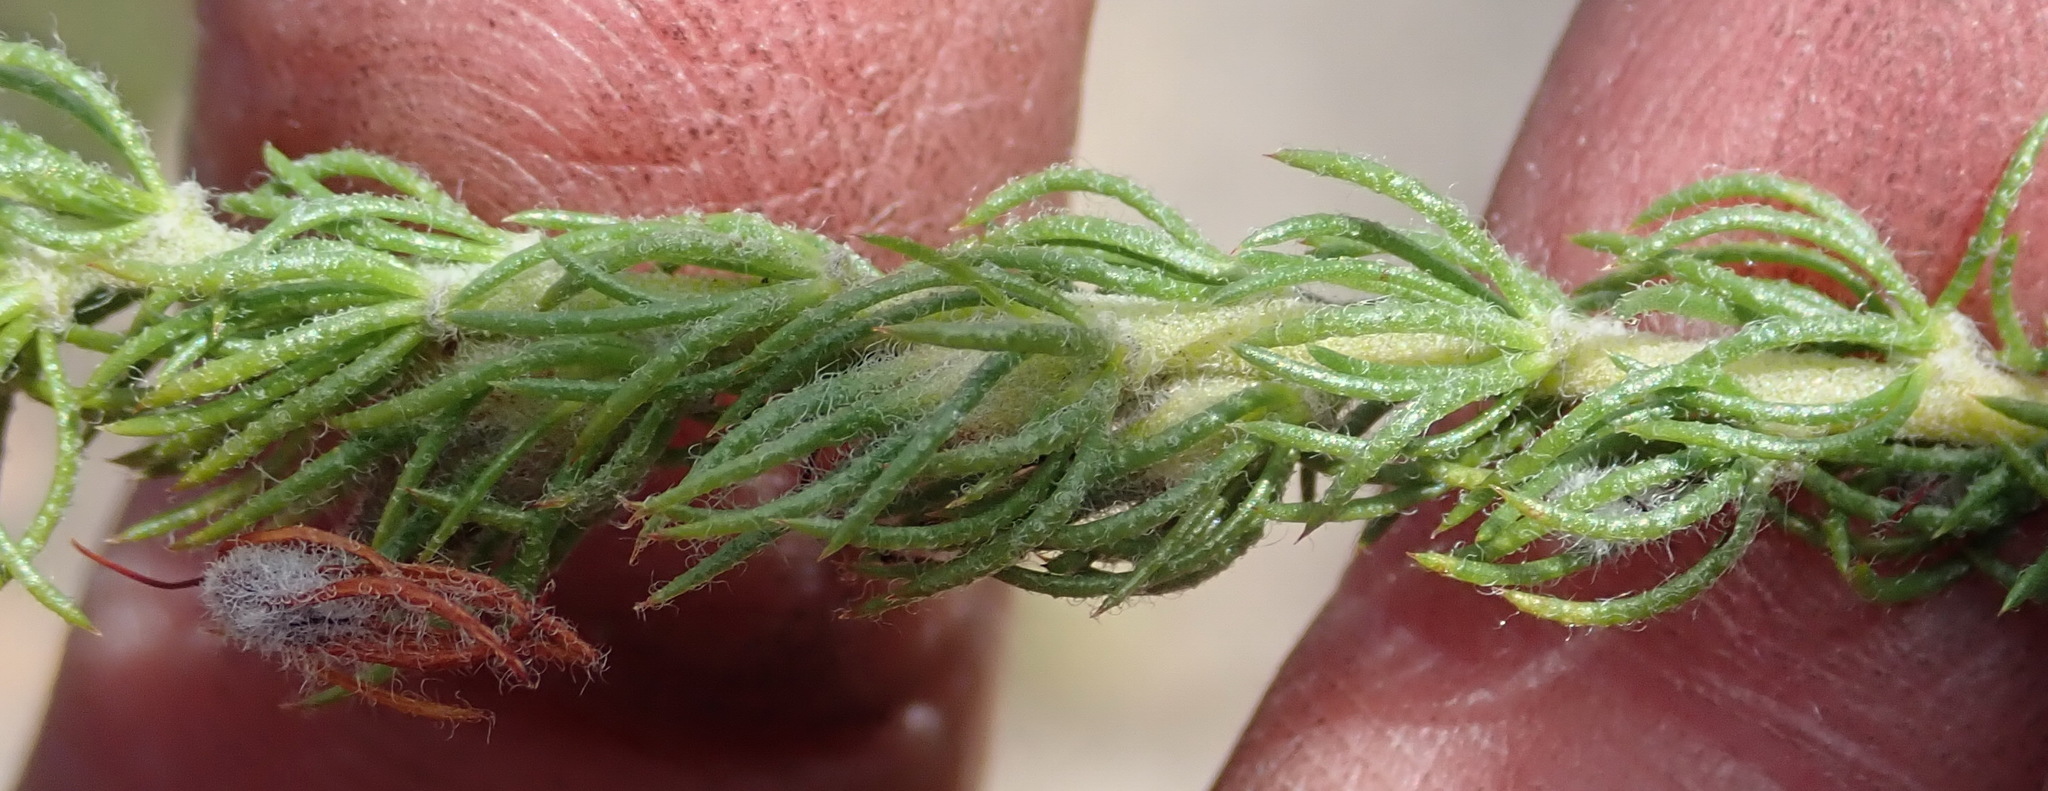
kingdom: Plantae
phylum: Tracheophyta
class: Magnoliopsida
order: Fabales
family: Fabaceae
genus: Aspalathus
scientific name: Aspalathus asparagoides
